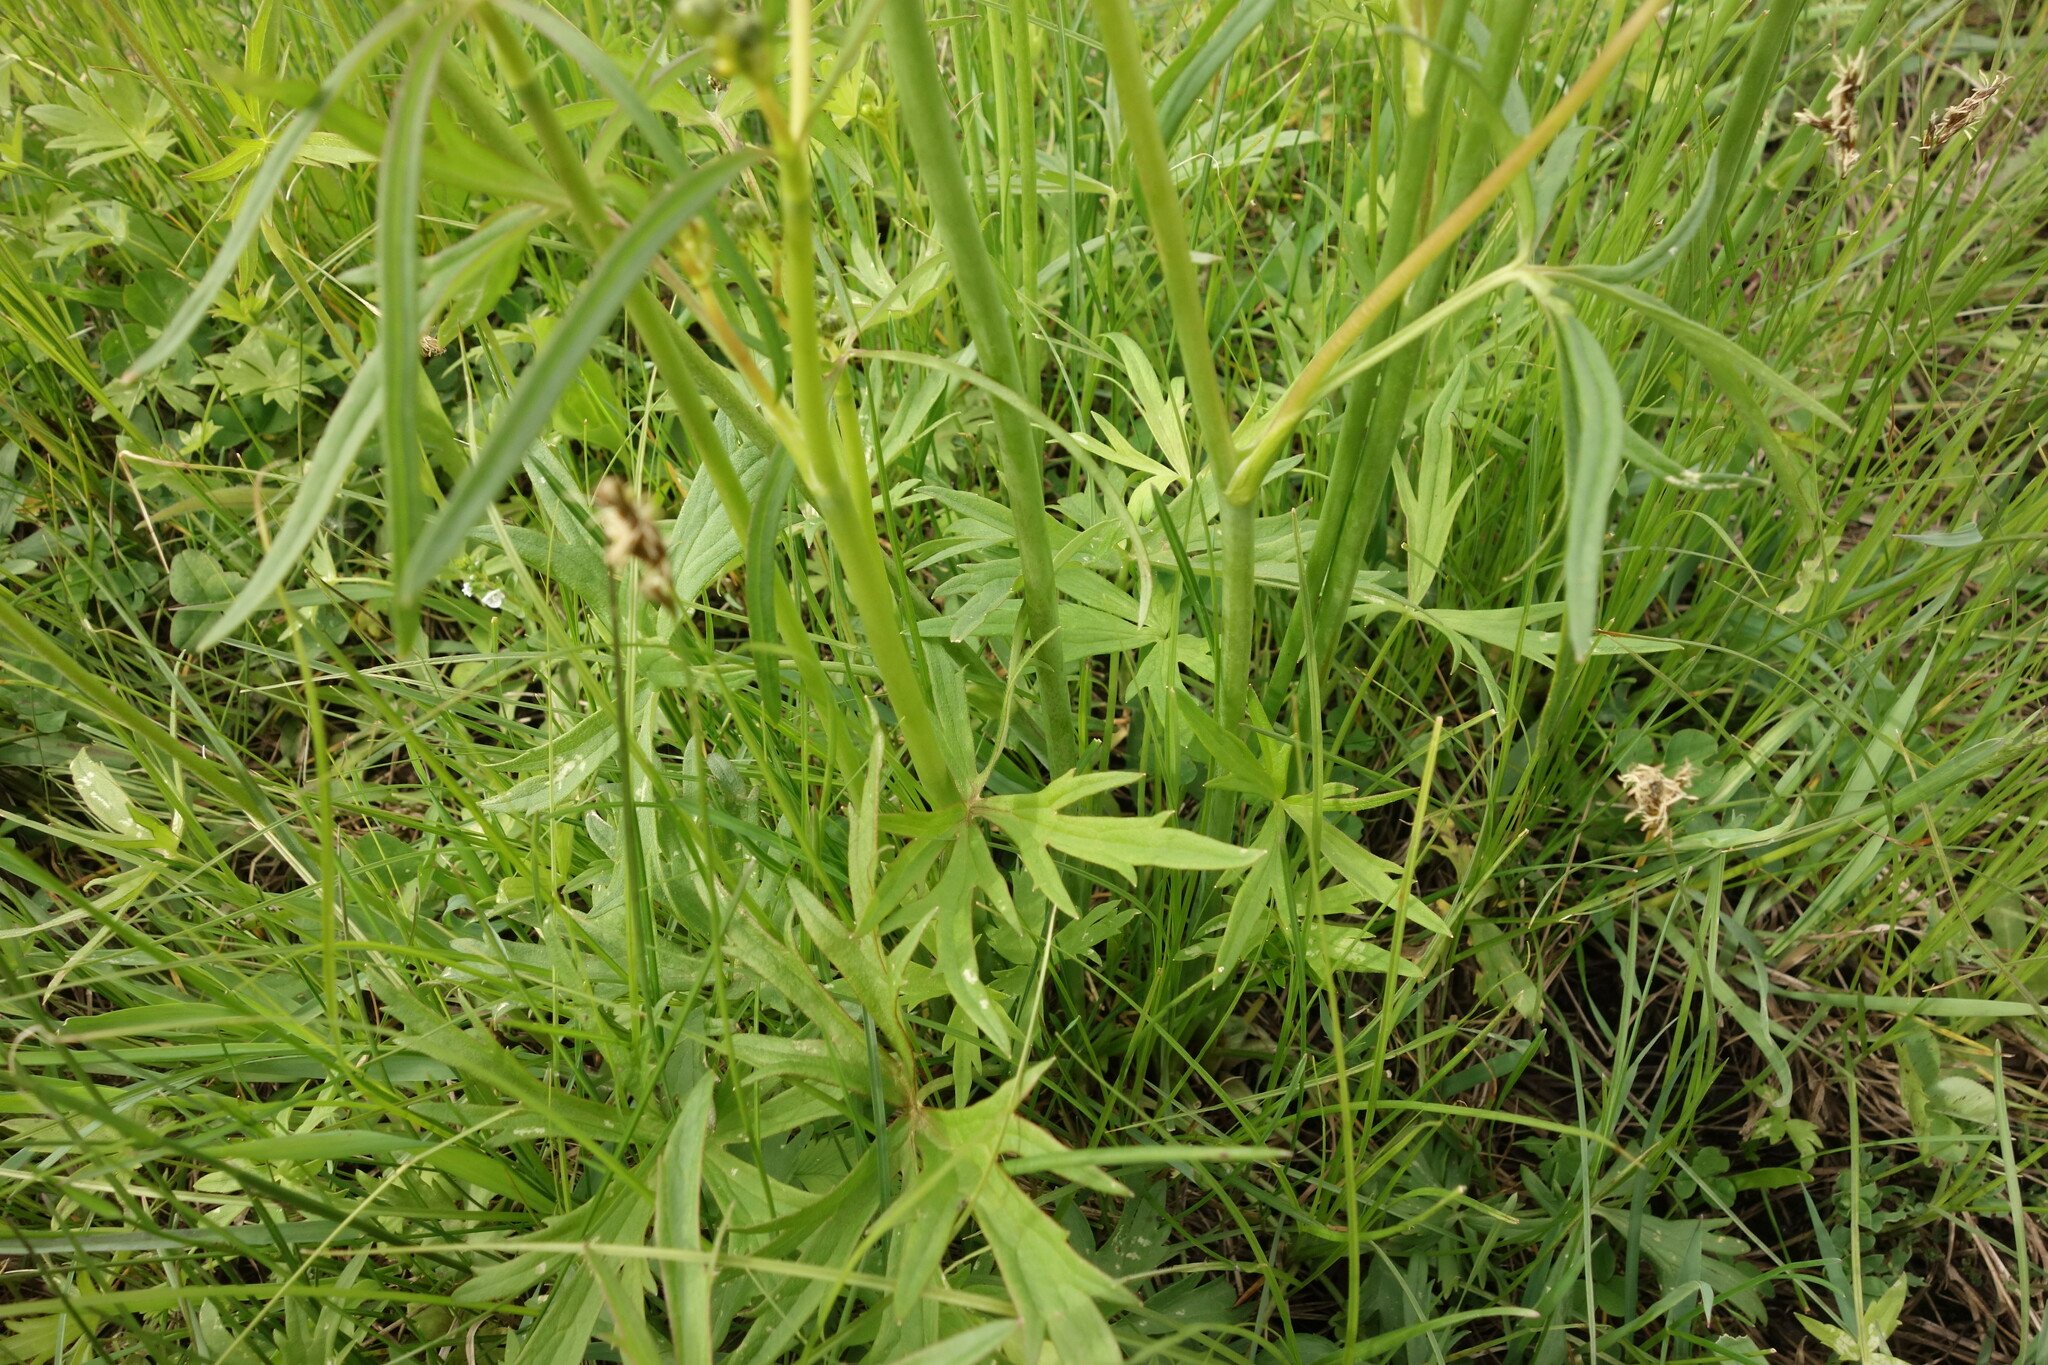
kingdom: Plantae
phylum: Tracheophyta
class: Magnoliopsida
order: Ranunculales
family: Ranunculaceae
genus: Ranunculus
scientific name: Ranunculus acris
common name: Meadow buttercup
